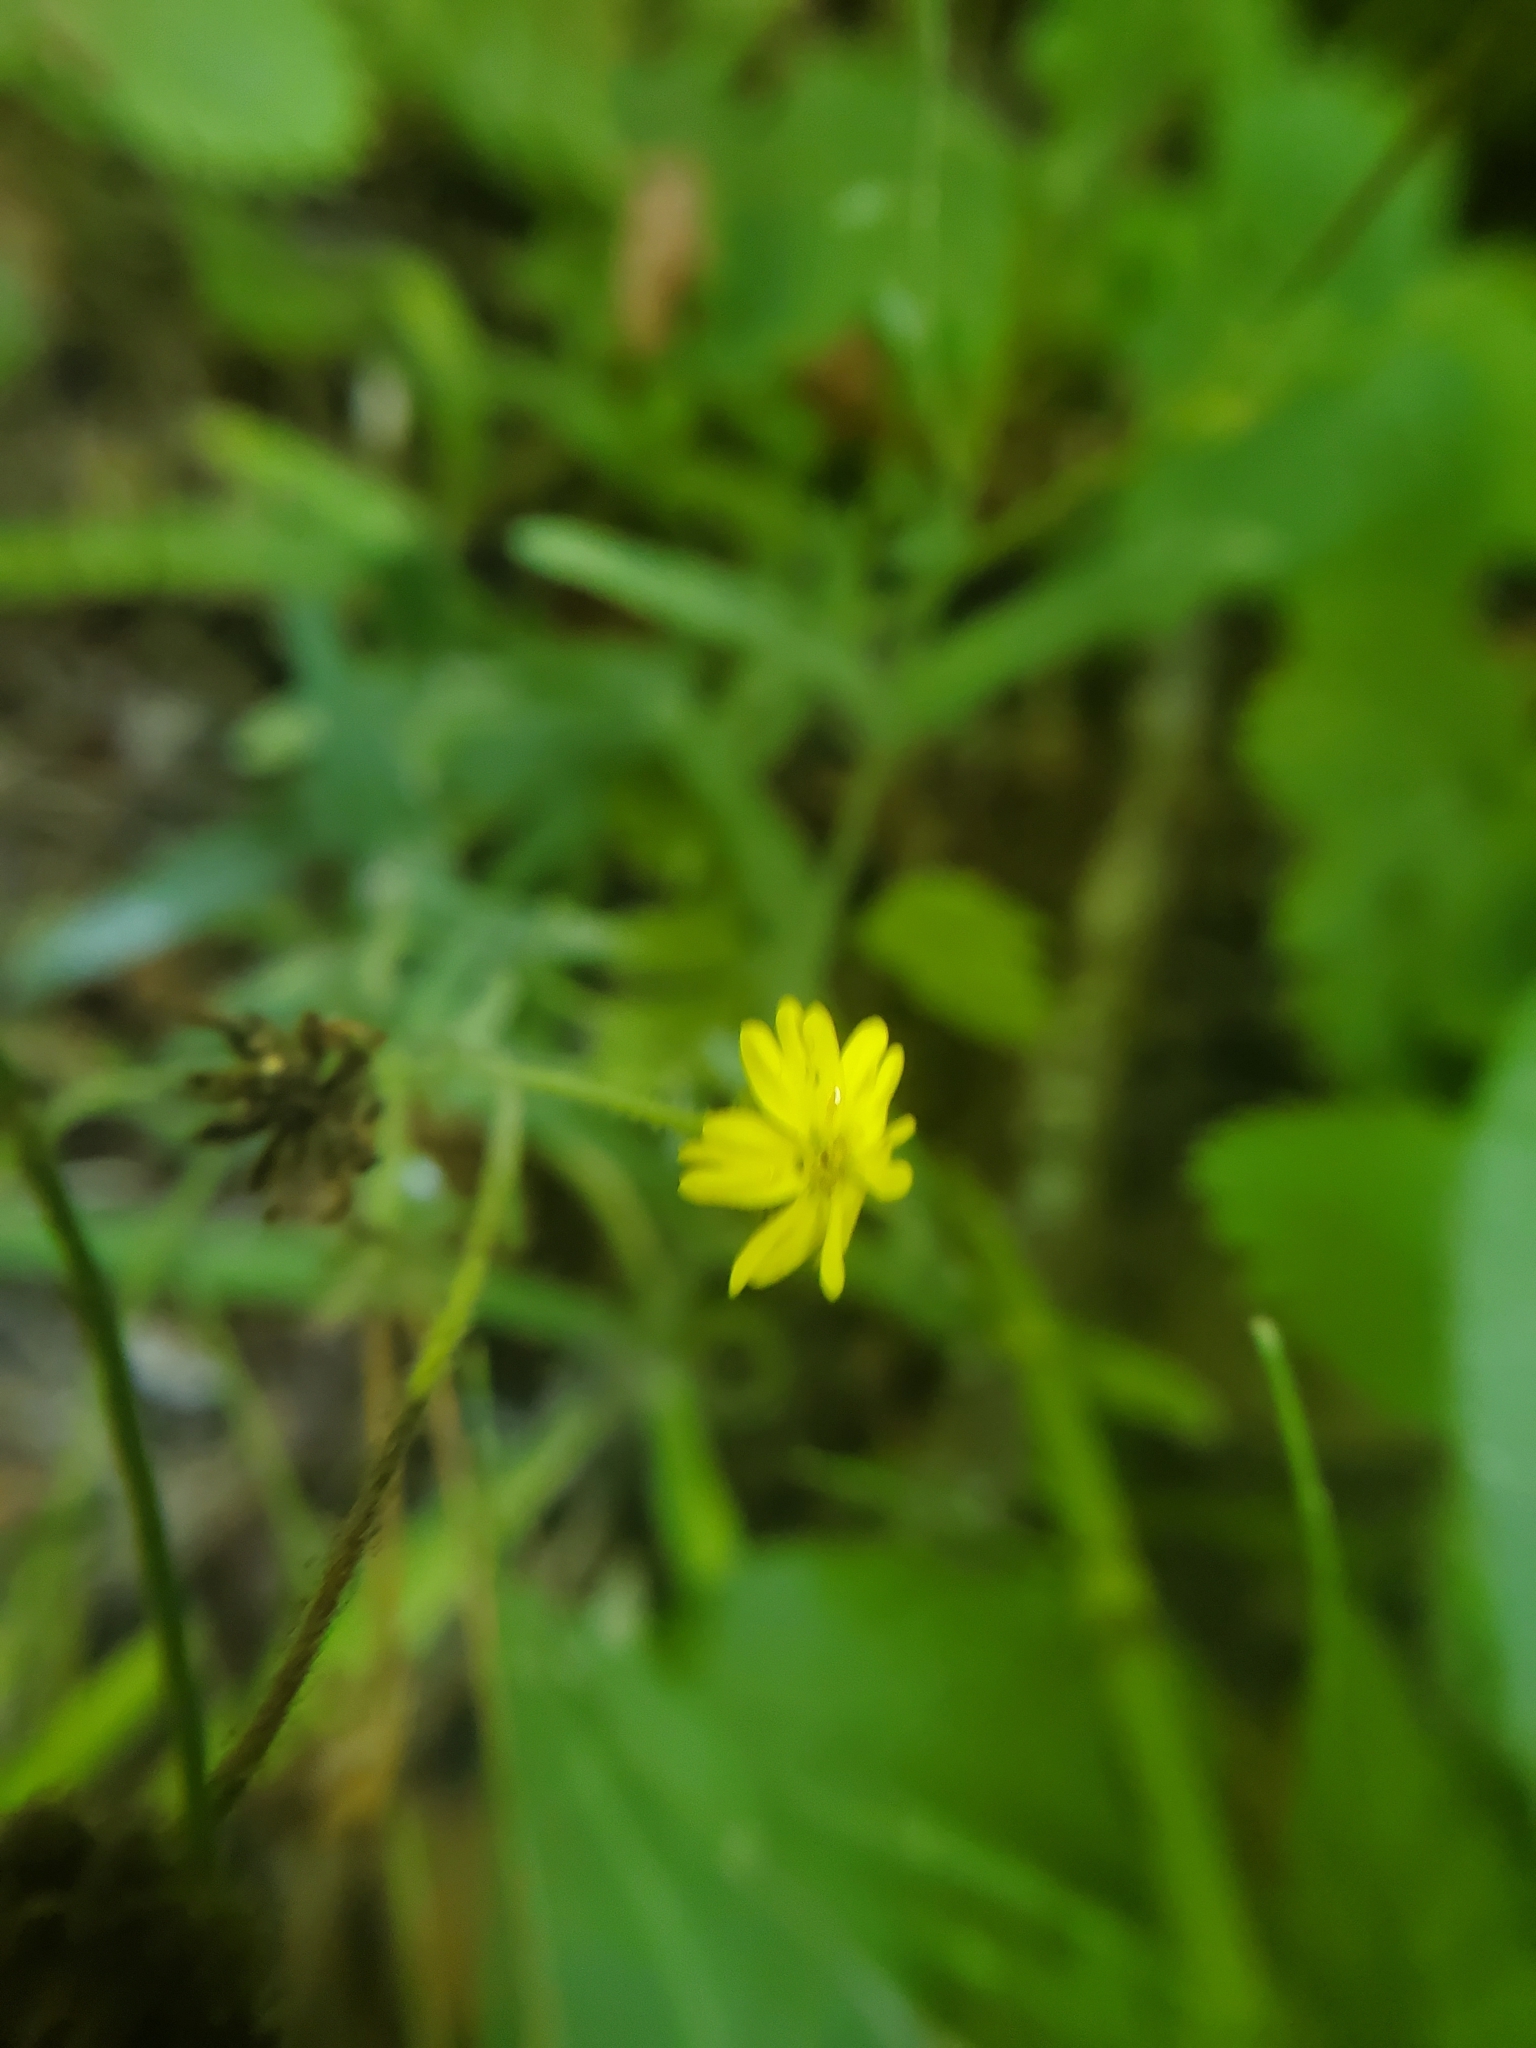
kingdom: Plantae
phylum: Tracheophyta
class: Magnoliopsida
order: Asterales
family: Asteraceae
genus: Anisocarpus
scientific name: Anisocarpus madioides
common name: Woodland madia
